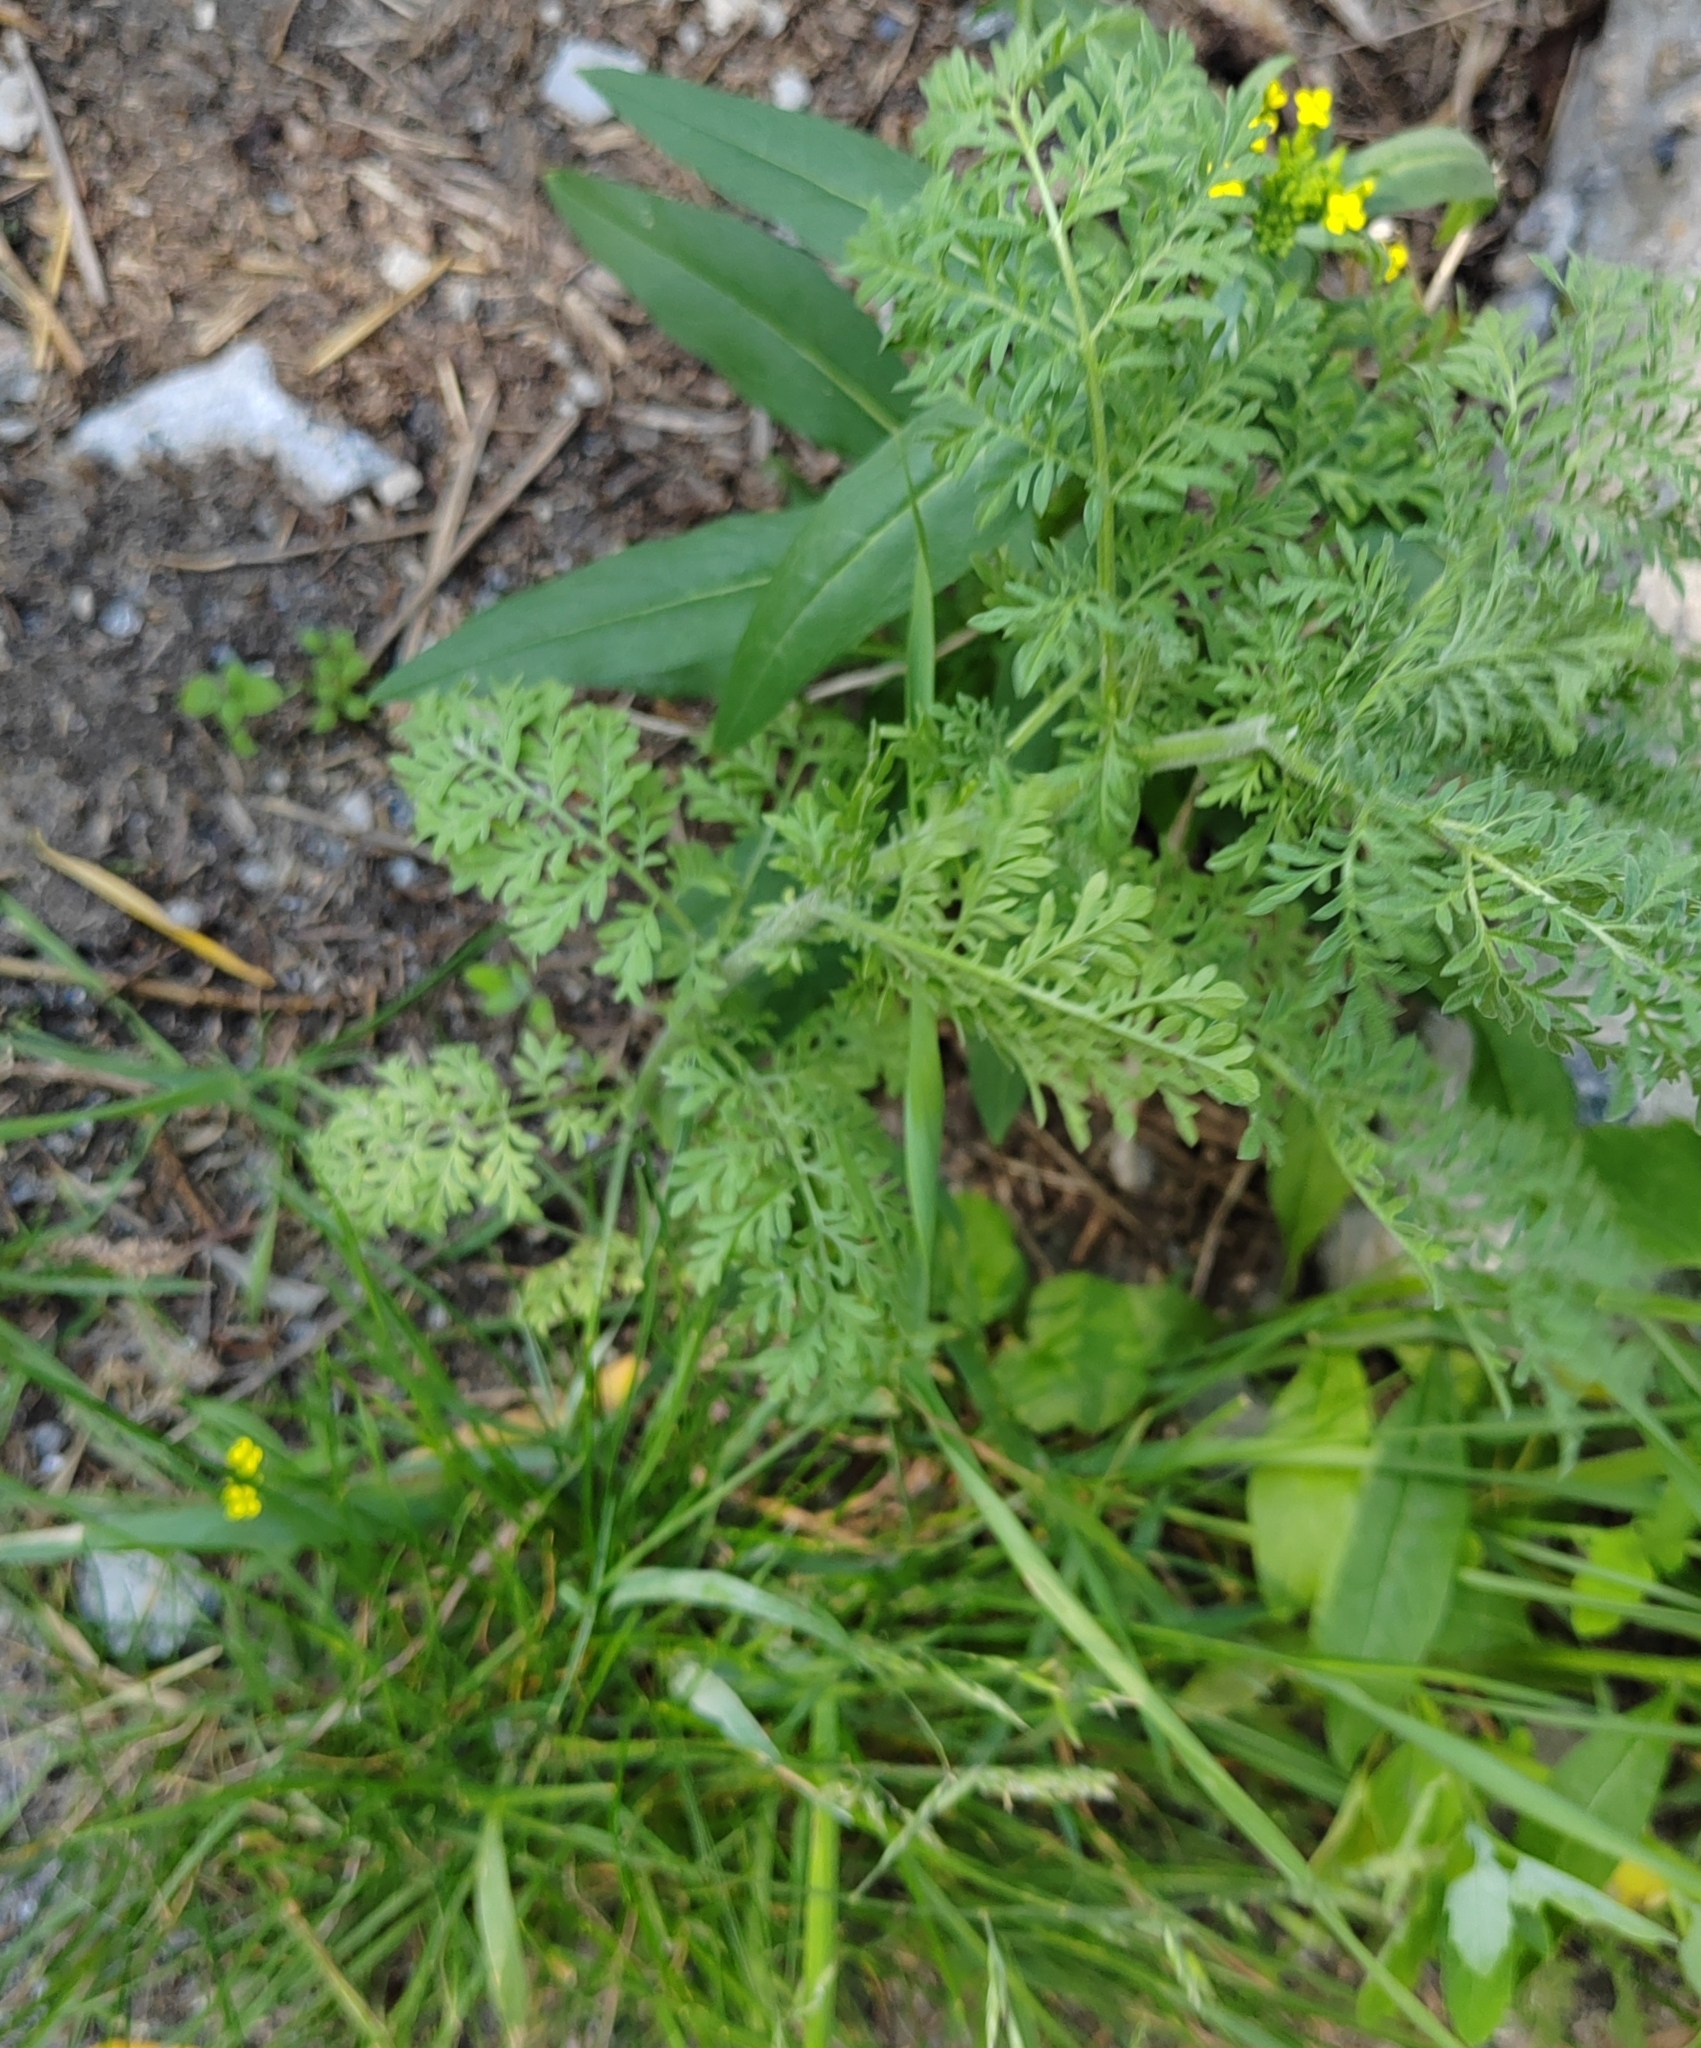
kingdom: Plantae
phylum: Tracheophyta
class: Magnoliopsida
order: Brassicales
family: Brassicaceae
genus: Descurainia
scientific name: Descurainia sophia
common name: Flixweed
